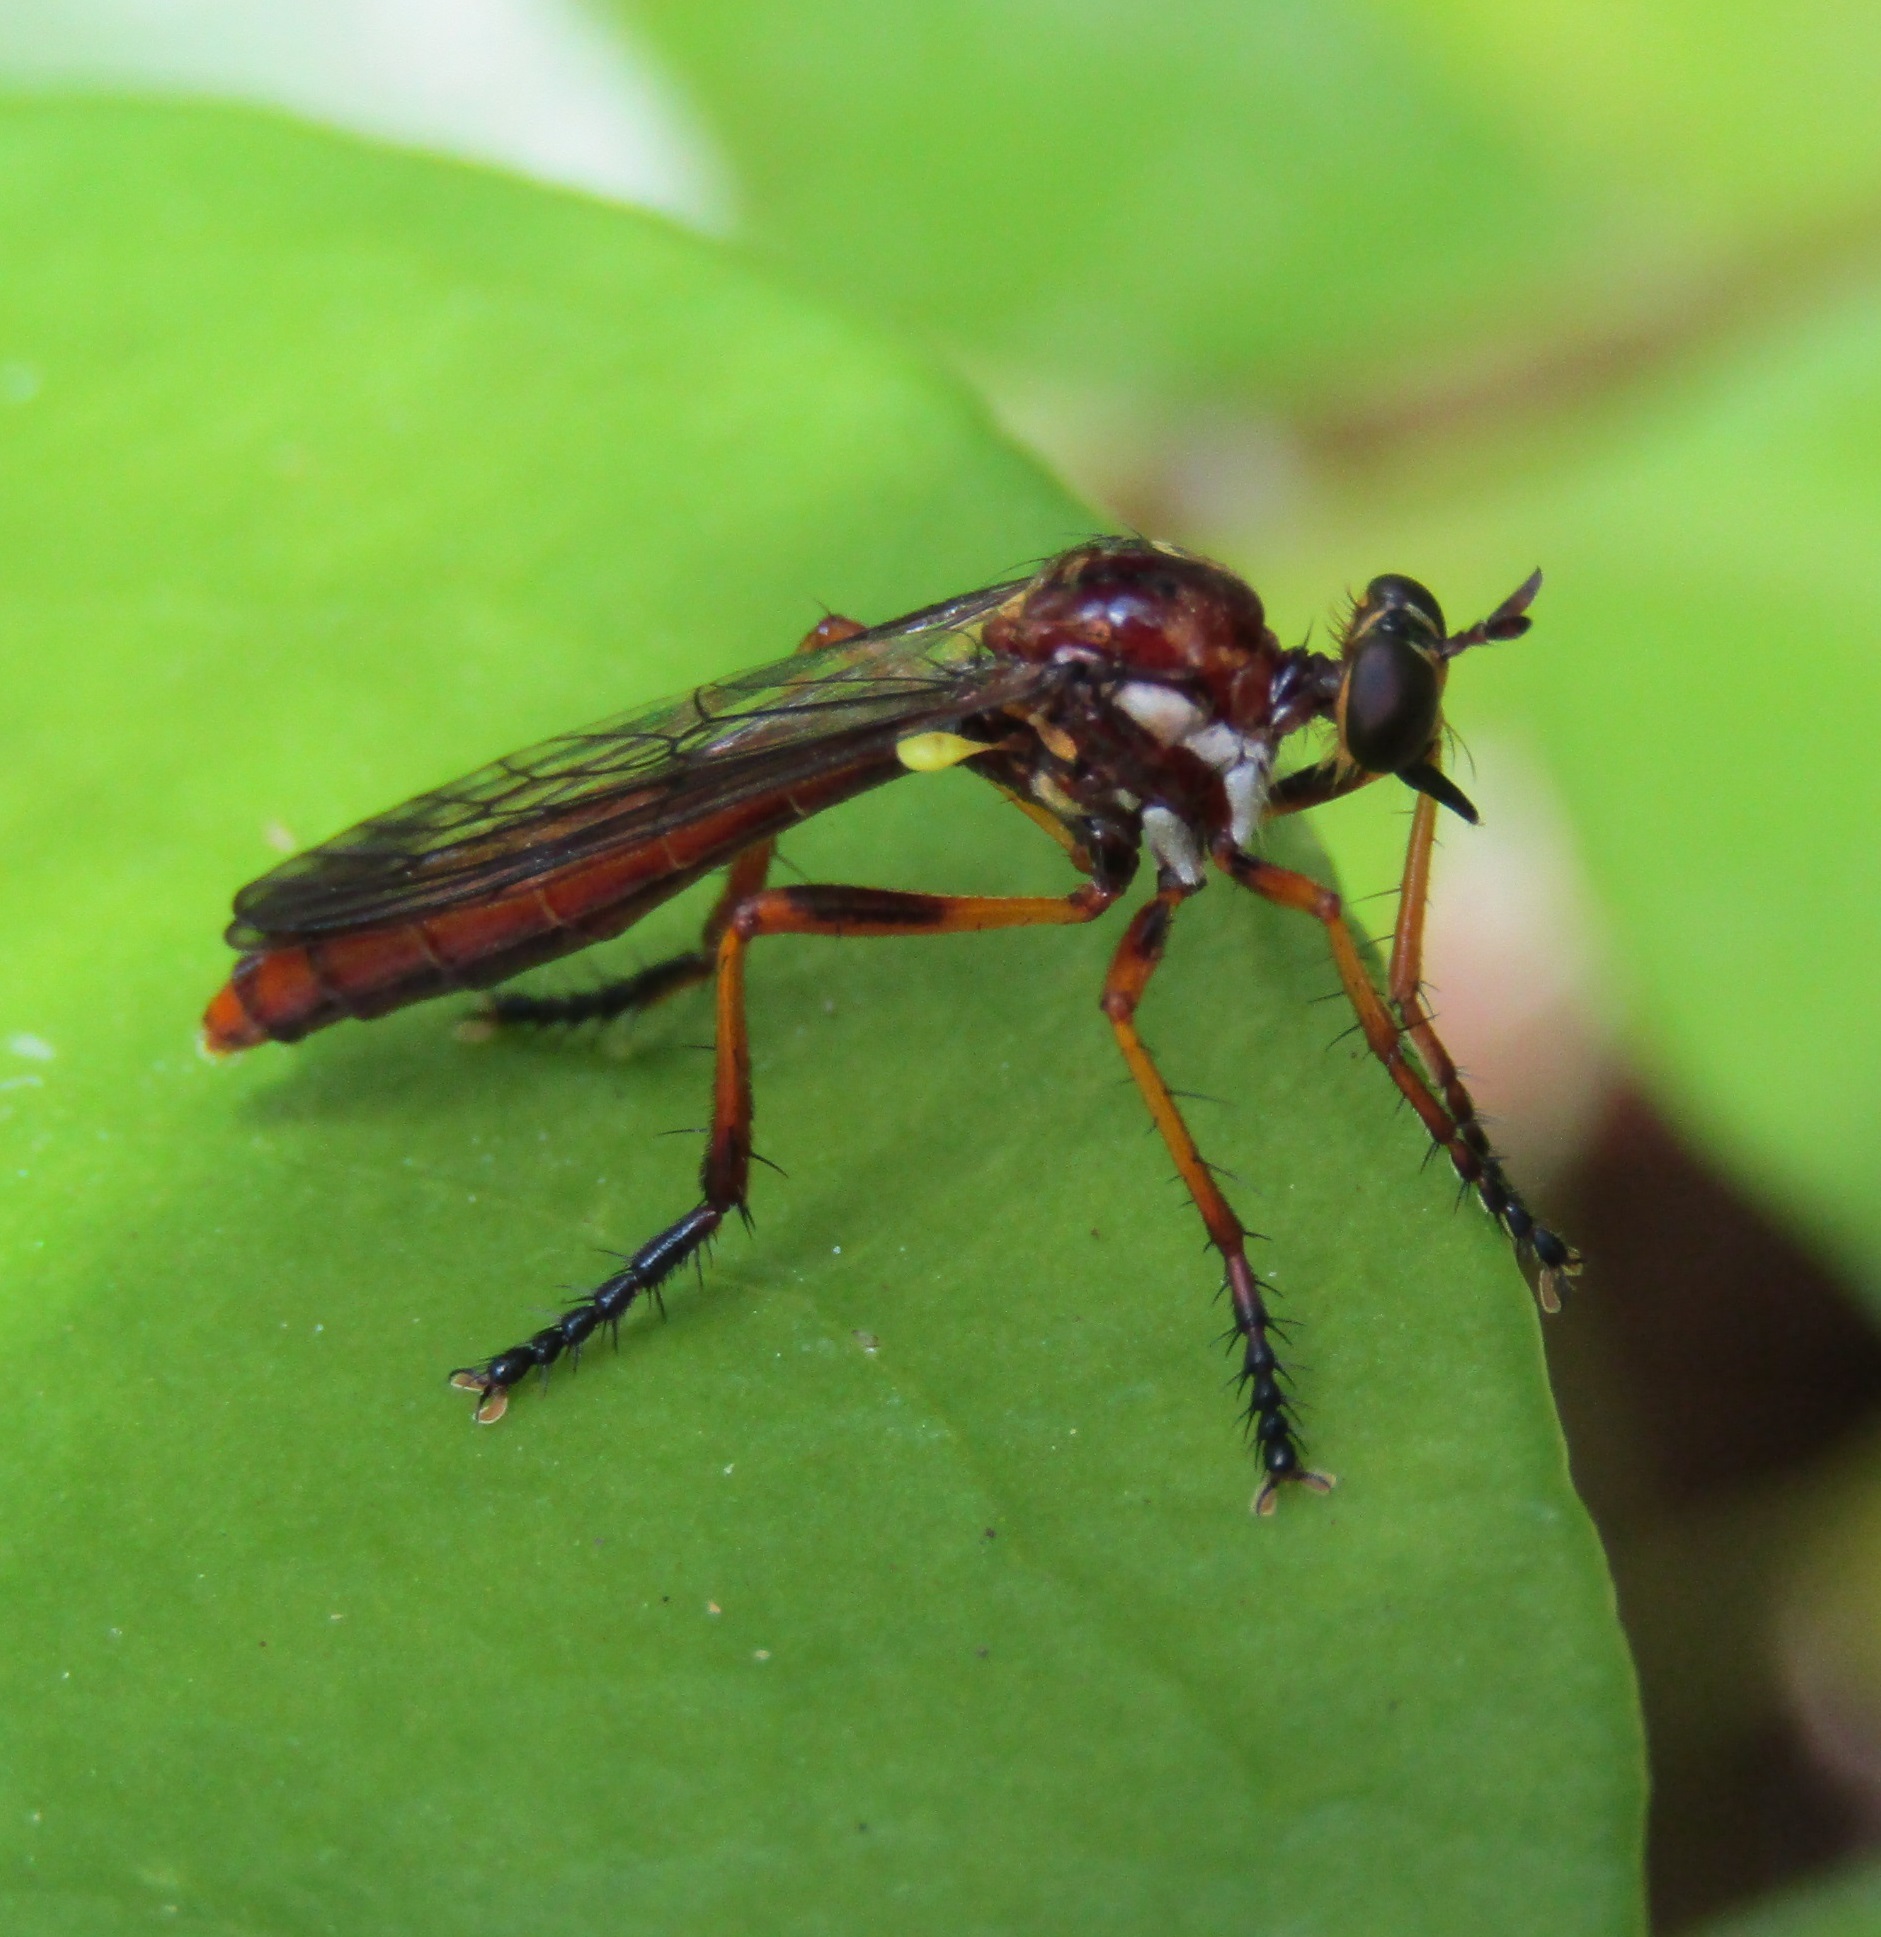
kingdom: Animalia
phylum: Arthropoda
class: Insecta
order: Diptera
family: Asilidae
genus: Saropogon
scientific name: Saropogon antipodus
